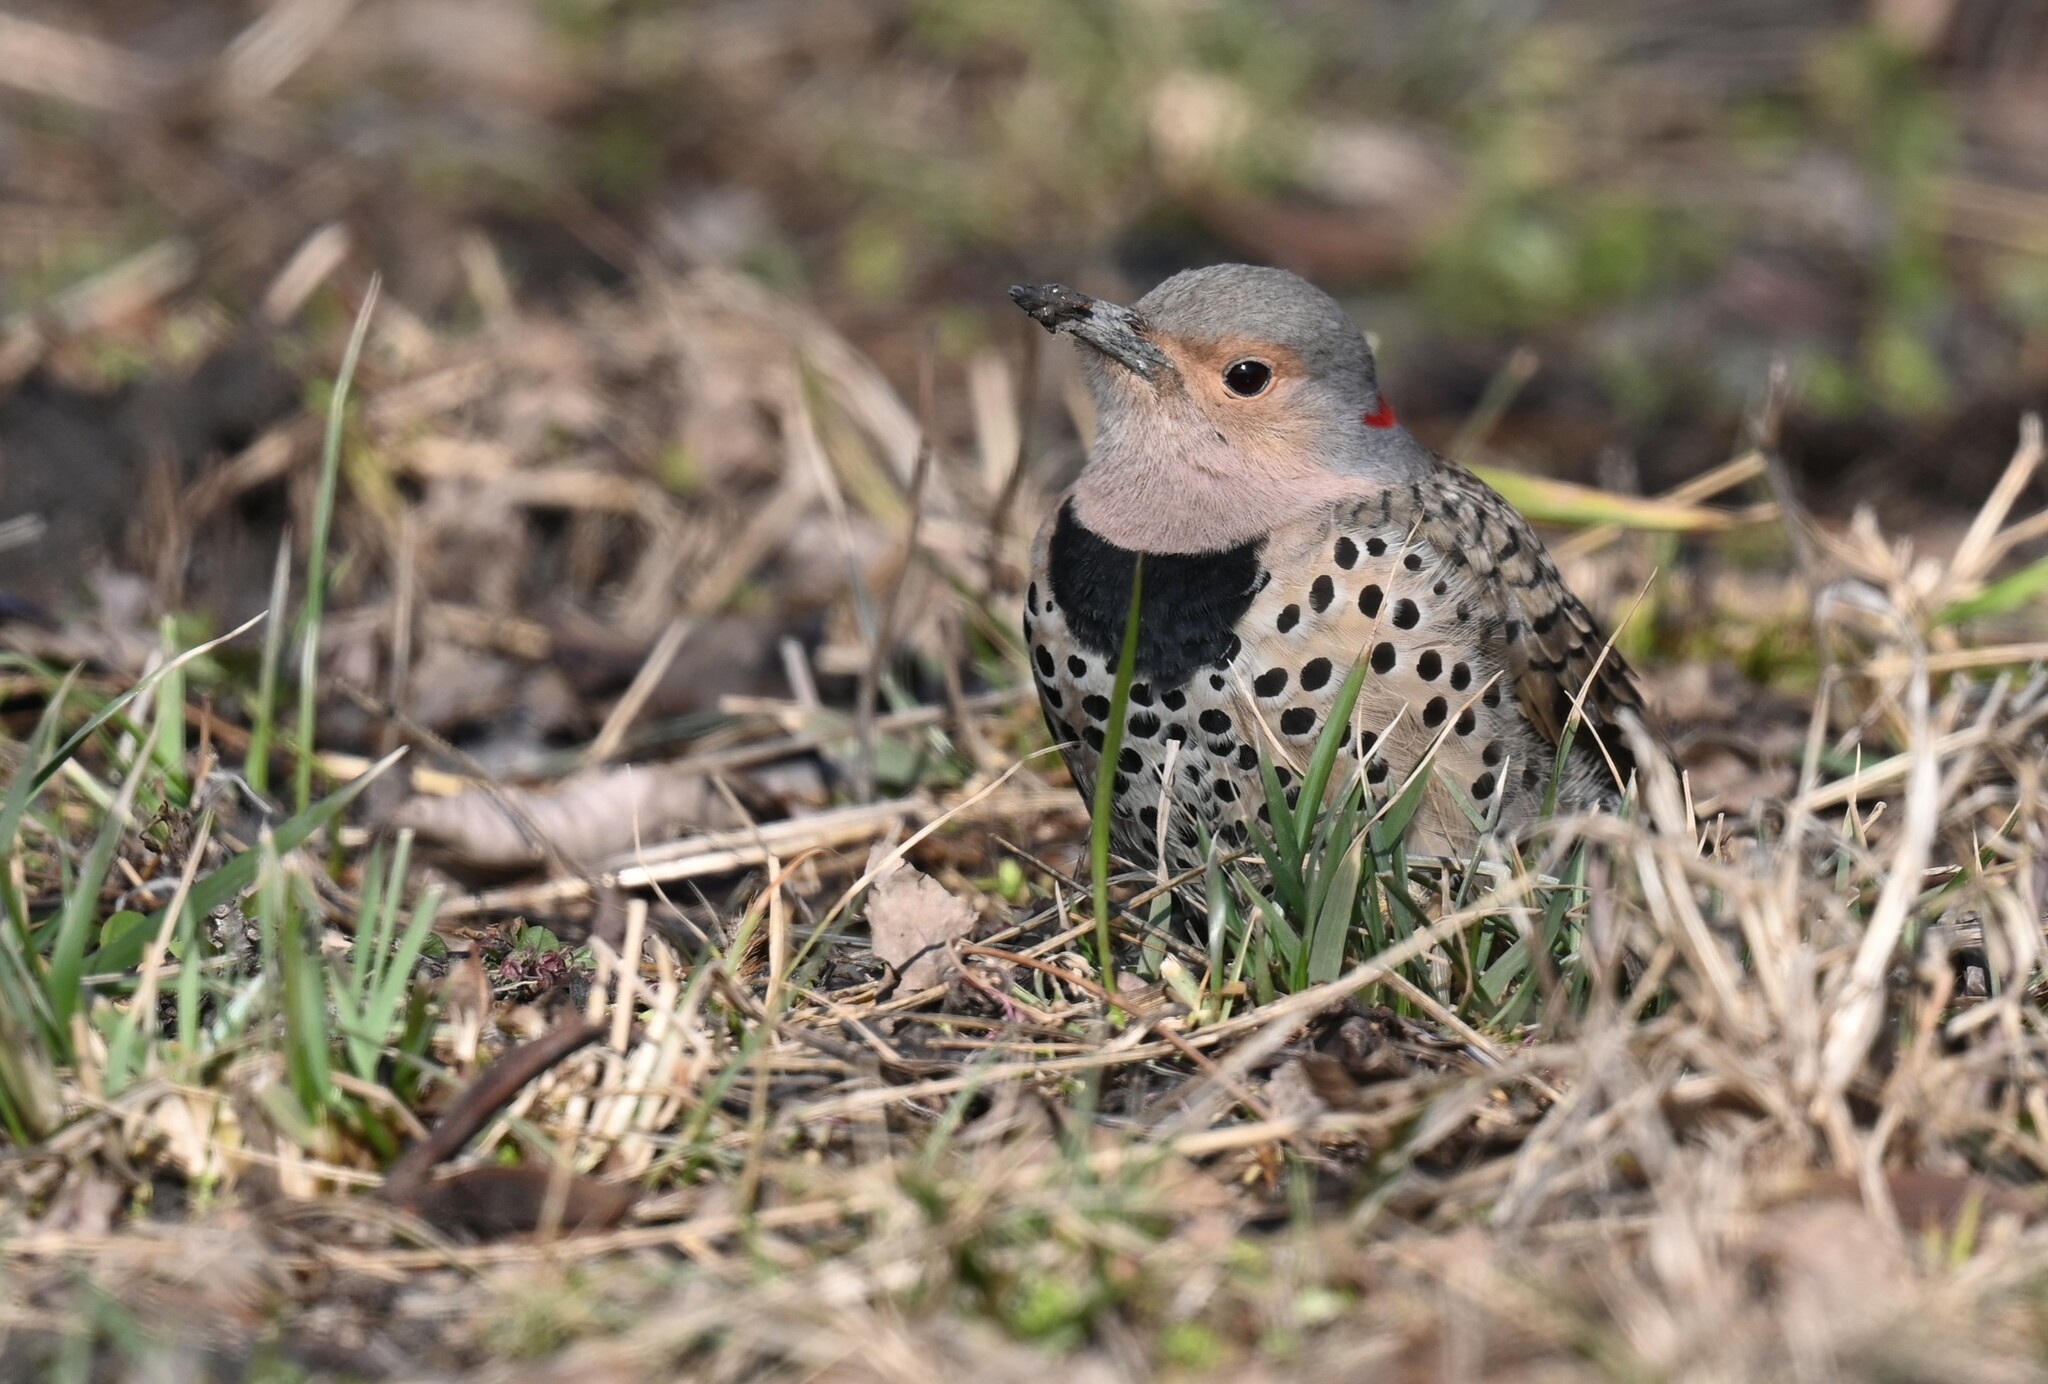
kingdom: Animalia
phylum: Chordata
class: Aves
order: Piciformes
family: Picidae
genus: Colaptes
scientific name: Colaptes auratus
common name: Northern flicker
